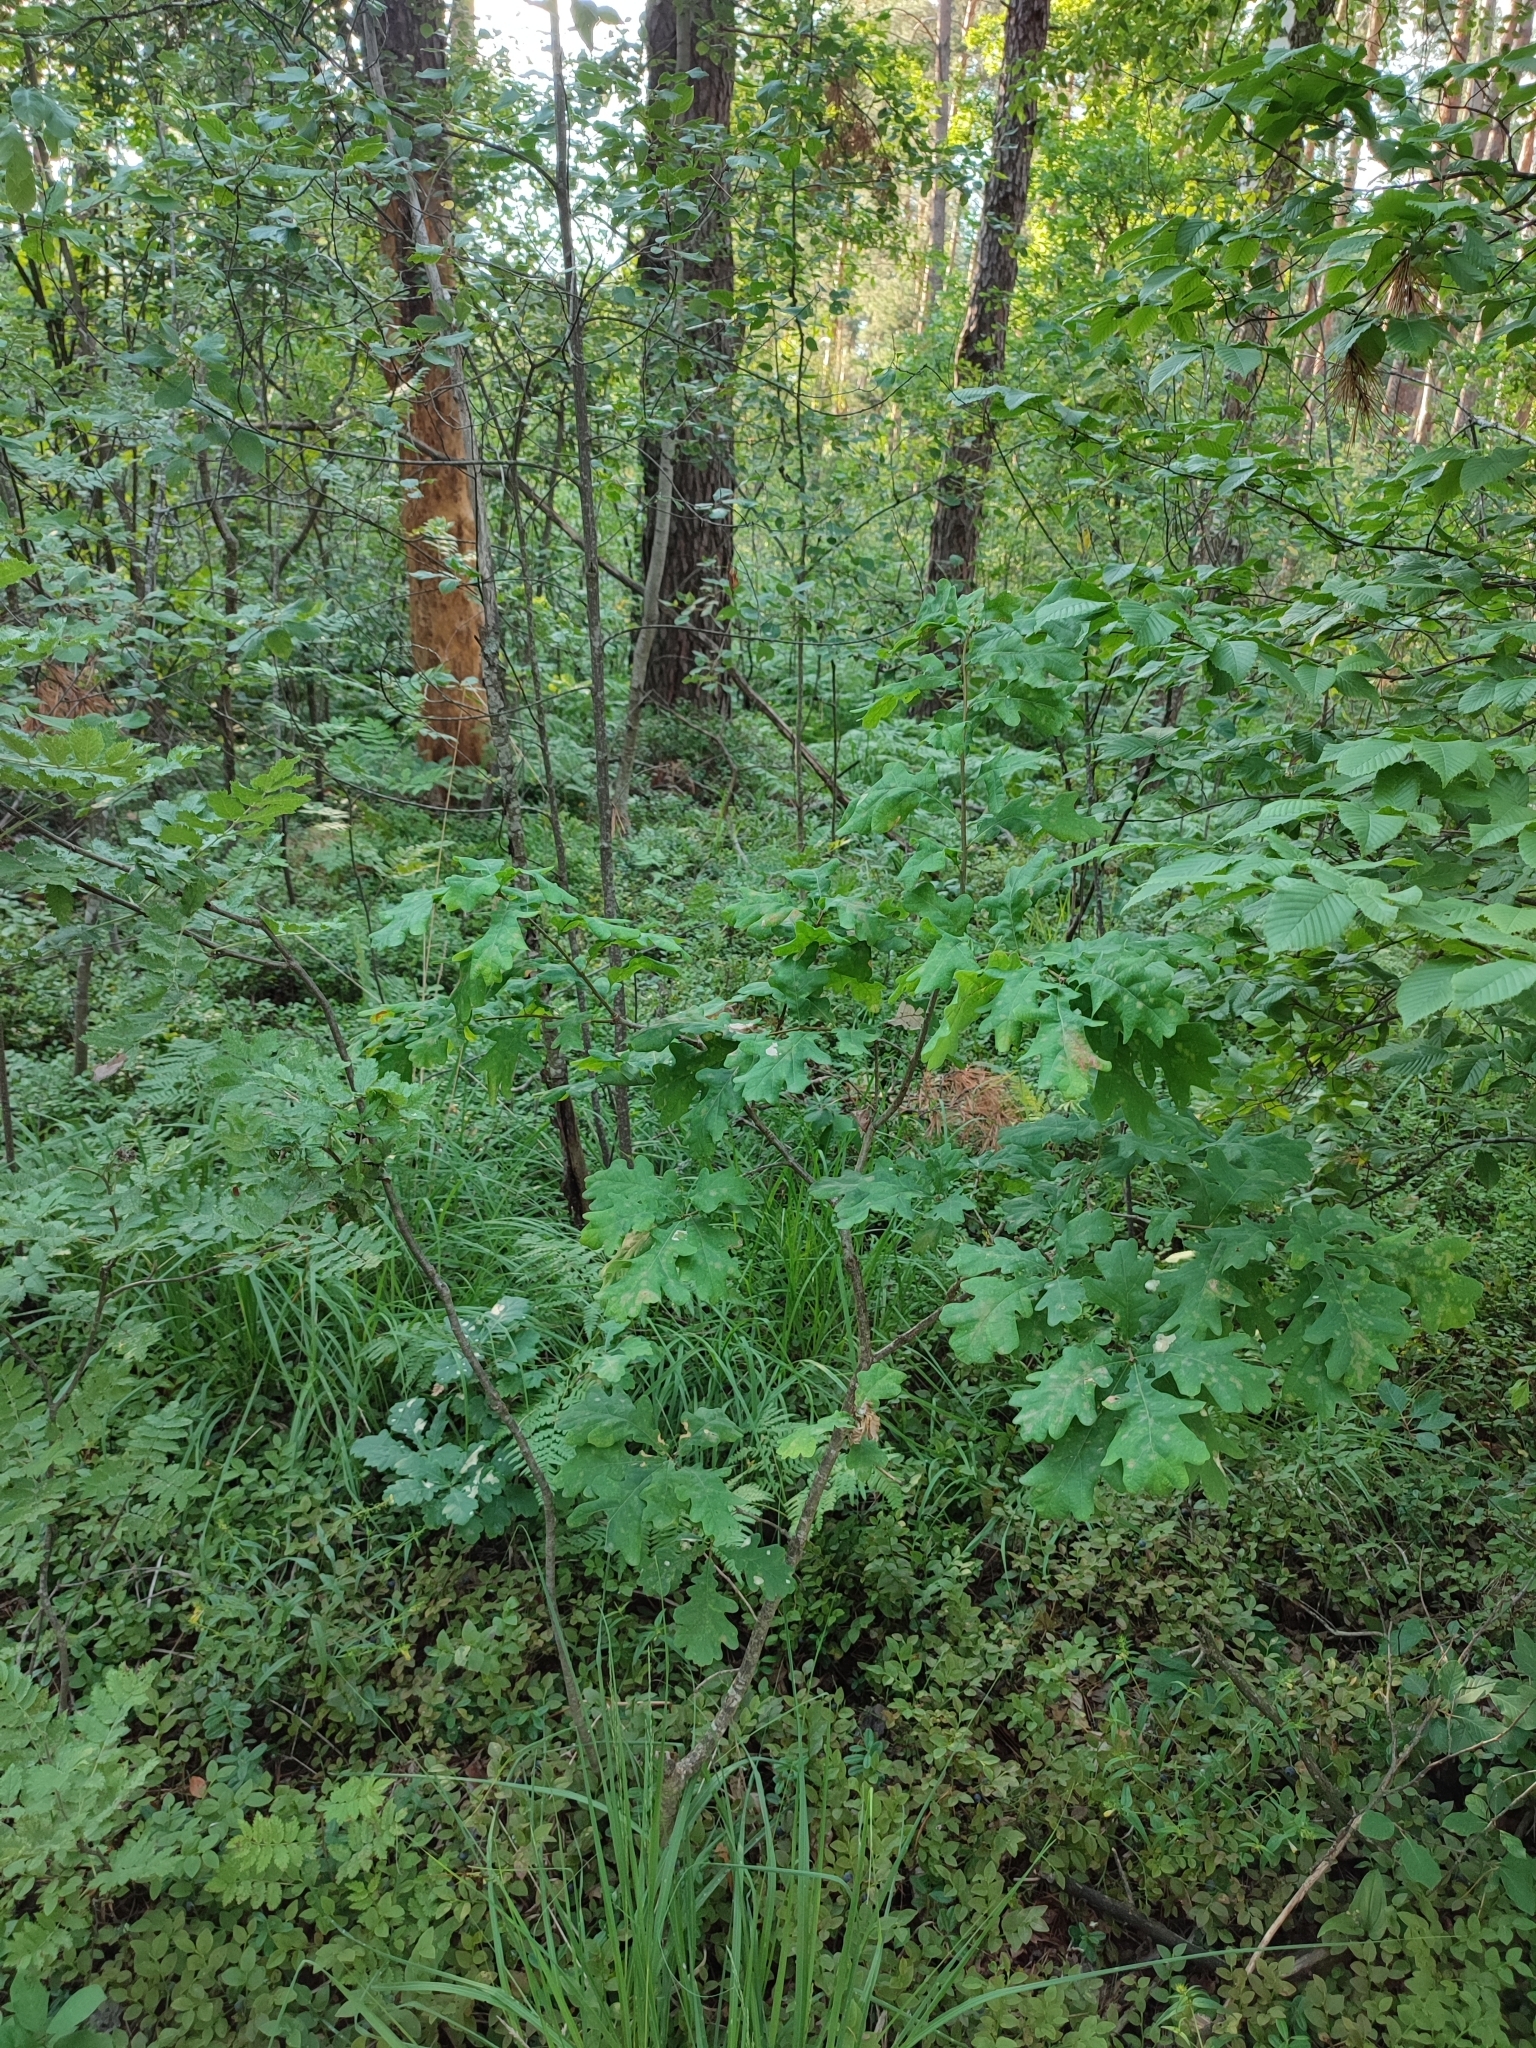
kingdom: Plantae
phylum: Tracheophyta
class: Magnoliopsida
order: Fagales
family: Fagaceae
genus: Quercus
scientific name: Quercus robur
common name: Pedunculate oak
